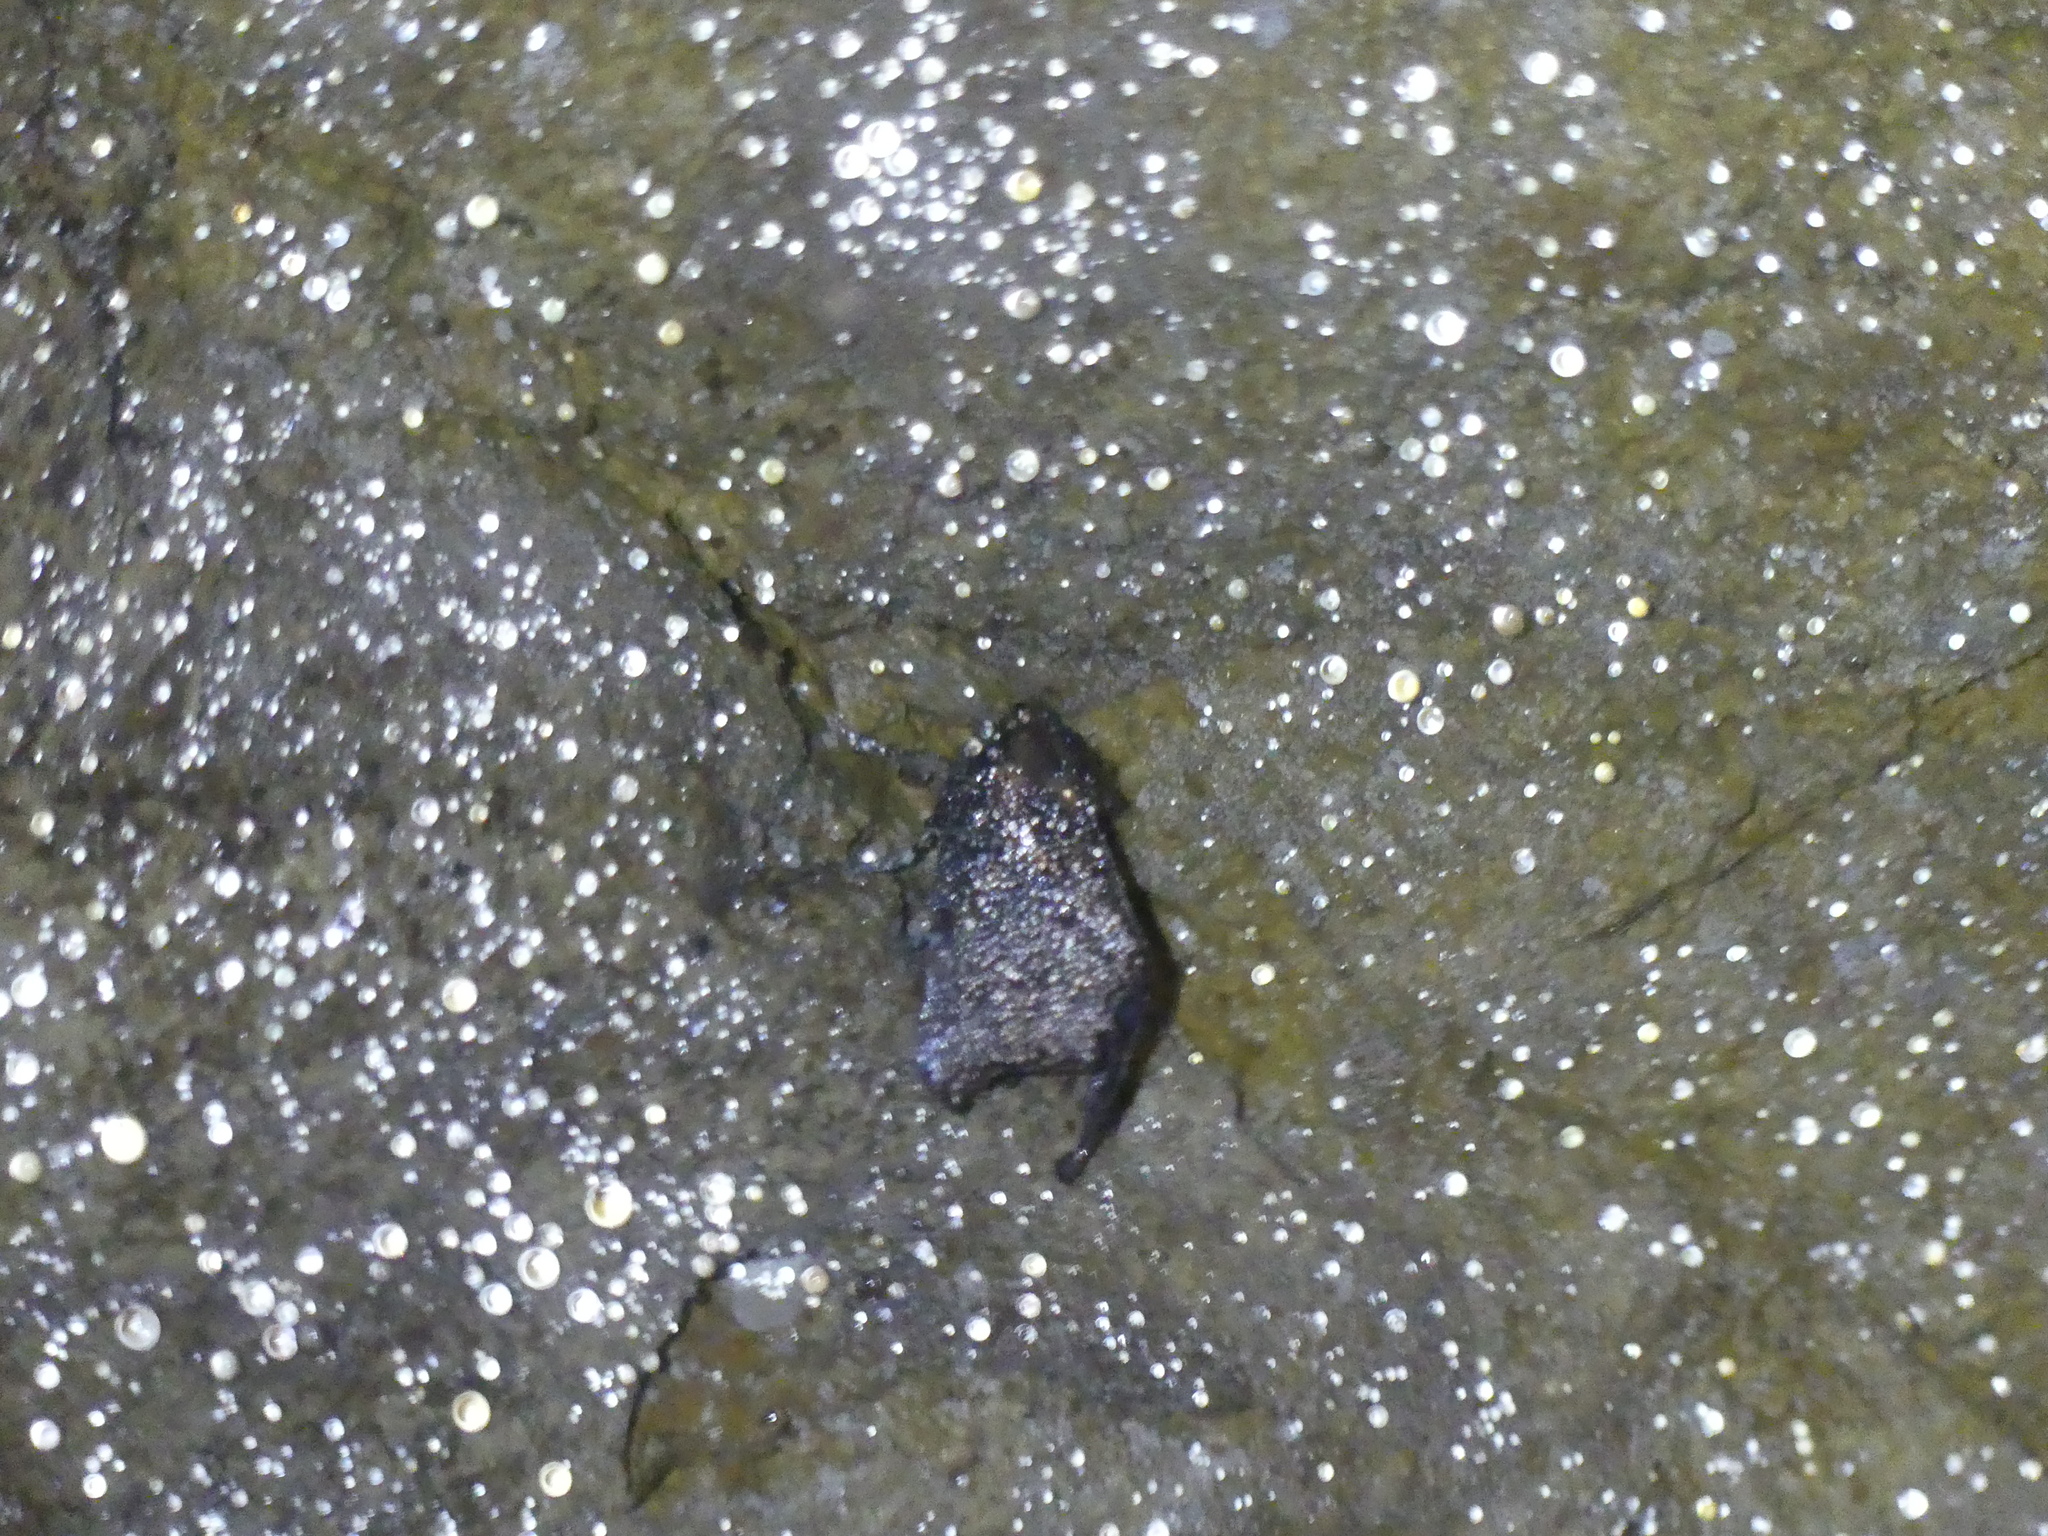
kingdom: Animalia
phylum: Arthropoda
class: Insecta
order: Lepidoptera
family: Erebidae
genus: Scoliopteryx
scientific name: Scoliopteryx libatrix
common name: Herald
